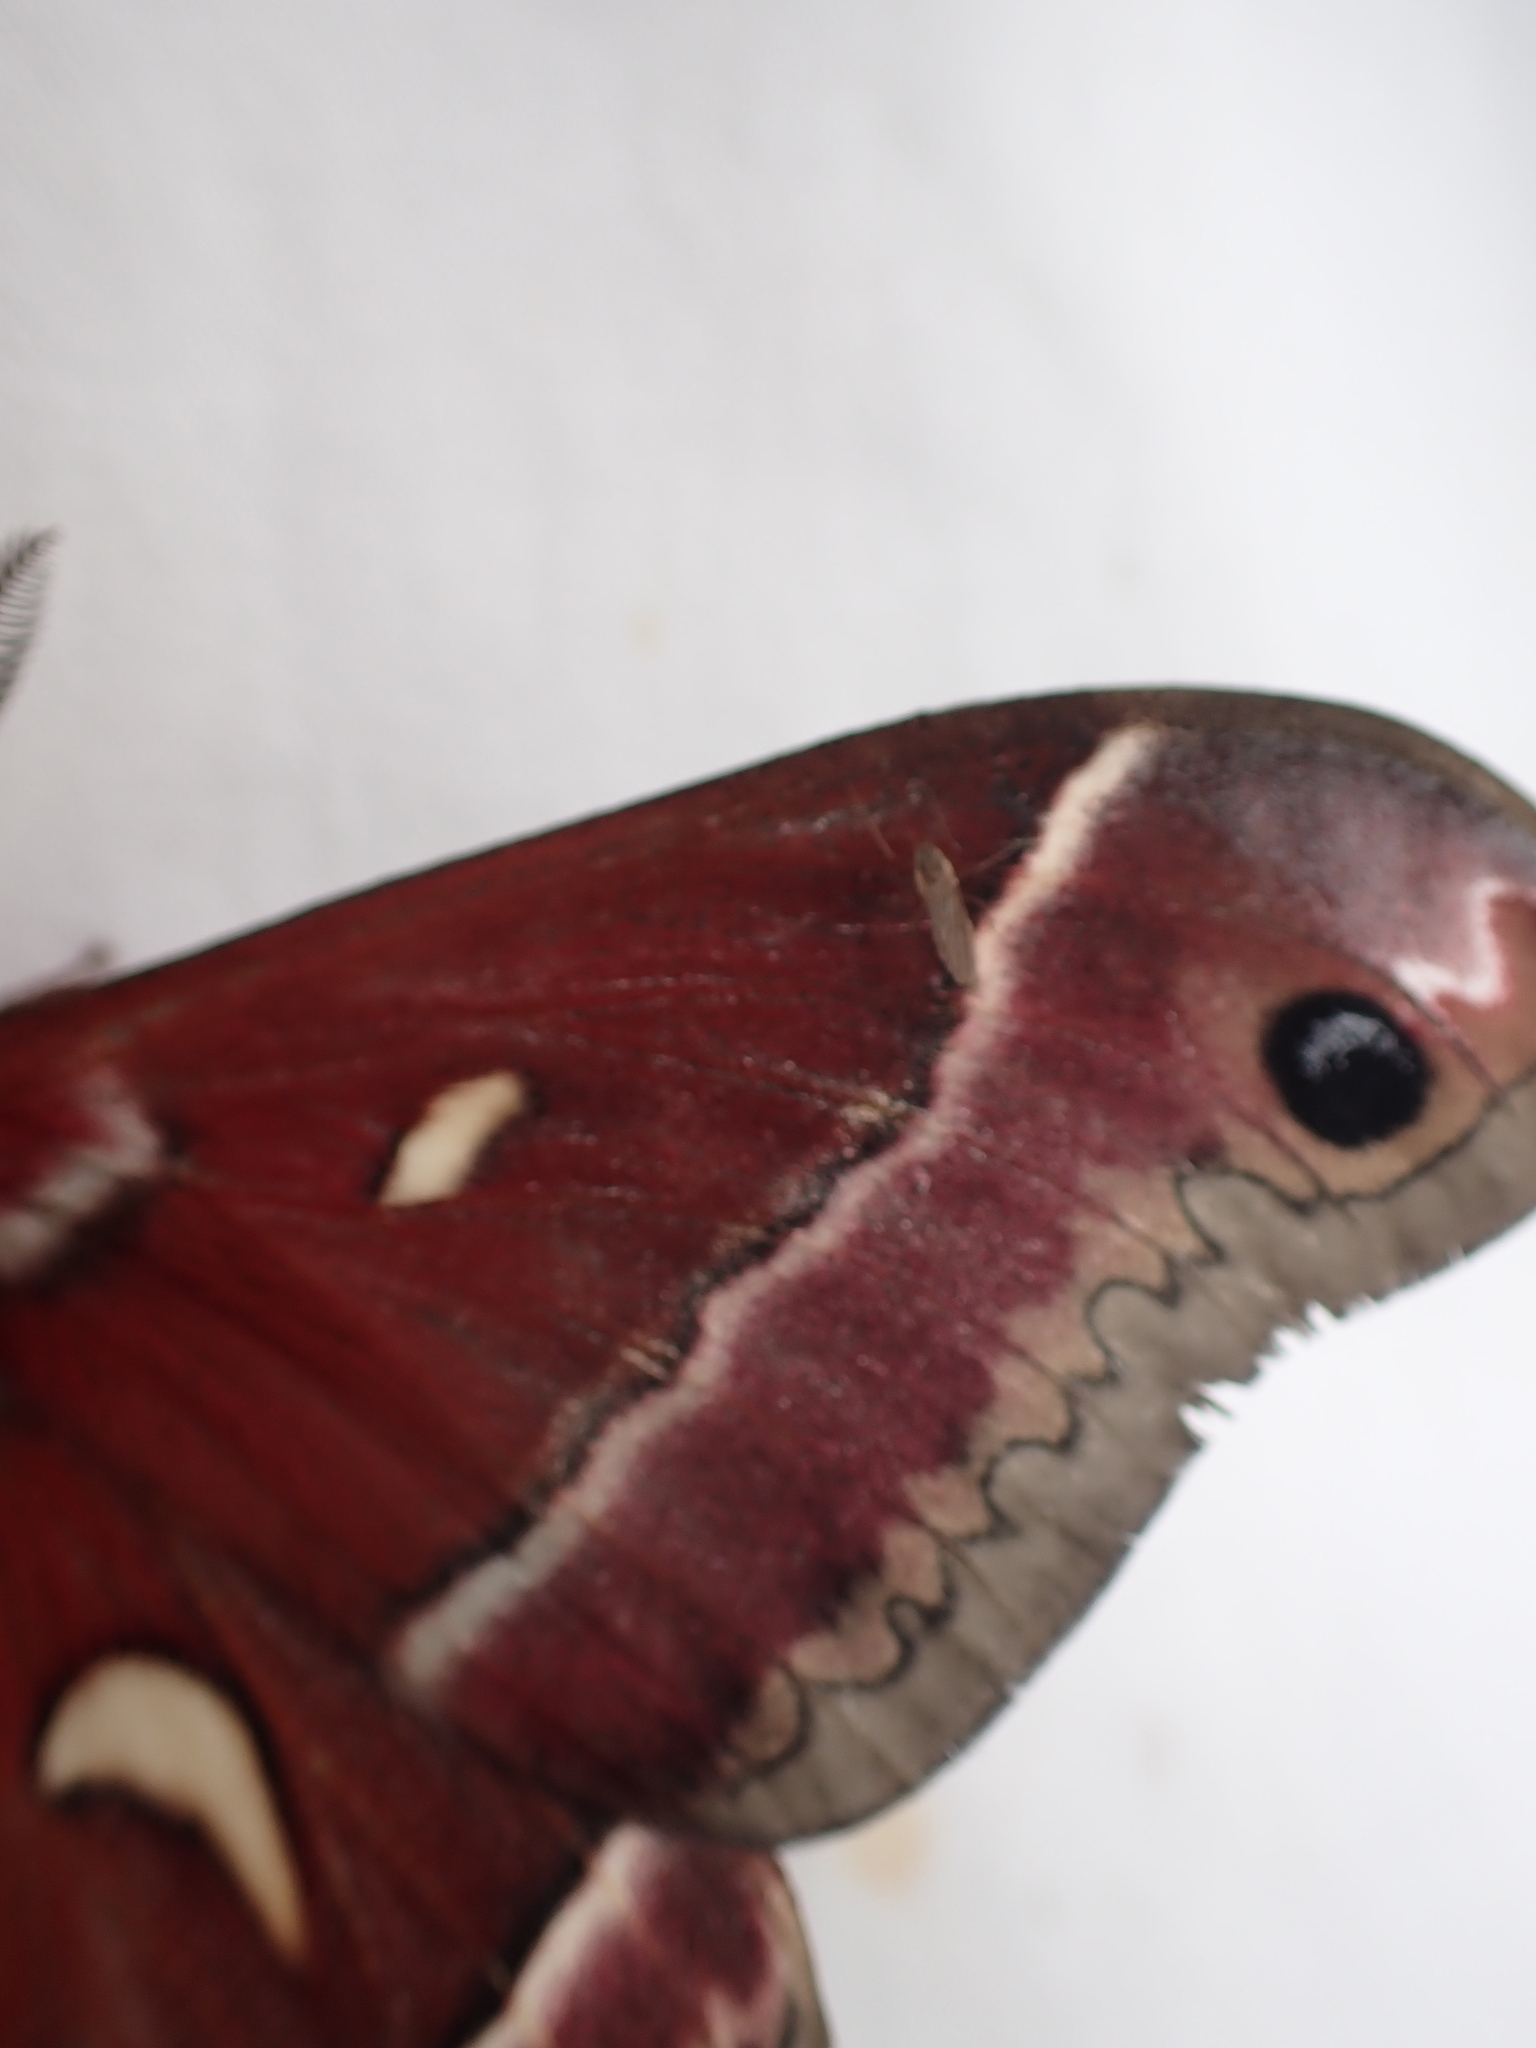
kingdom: Animalia
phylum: Arthropoda
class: Insecta
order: Lepidoptera
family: Saturniidae
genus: Hyalophora
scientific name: Hyalophora euryalus
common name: Ceanothus silkmoth
